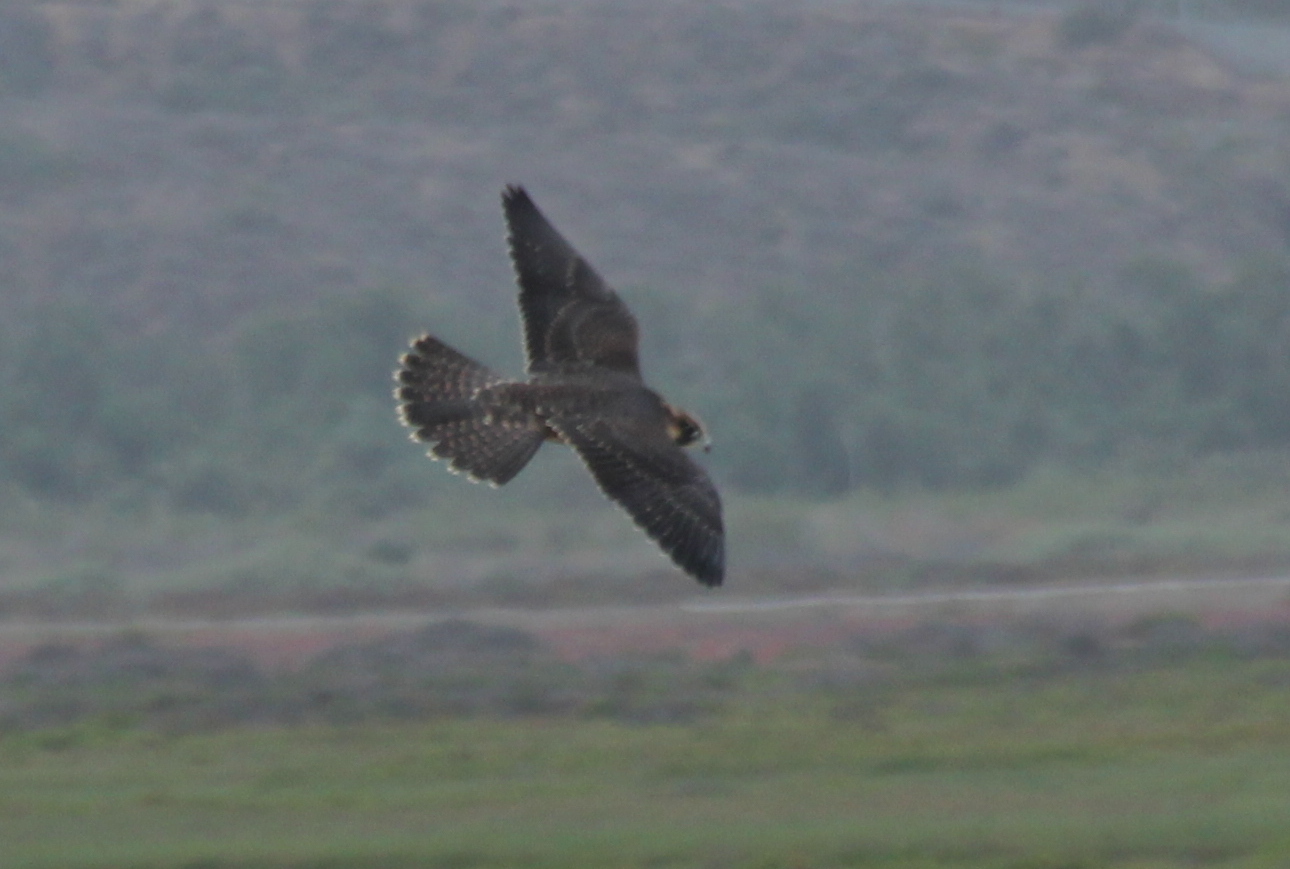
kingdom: Animalia
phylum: Chordata
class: Aves
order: Falconiformes
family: Falconidae
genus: Falco
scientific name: Falco peregrinus
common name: Peregrine falcon
